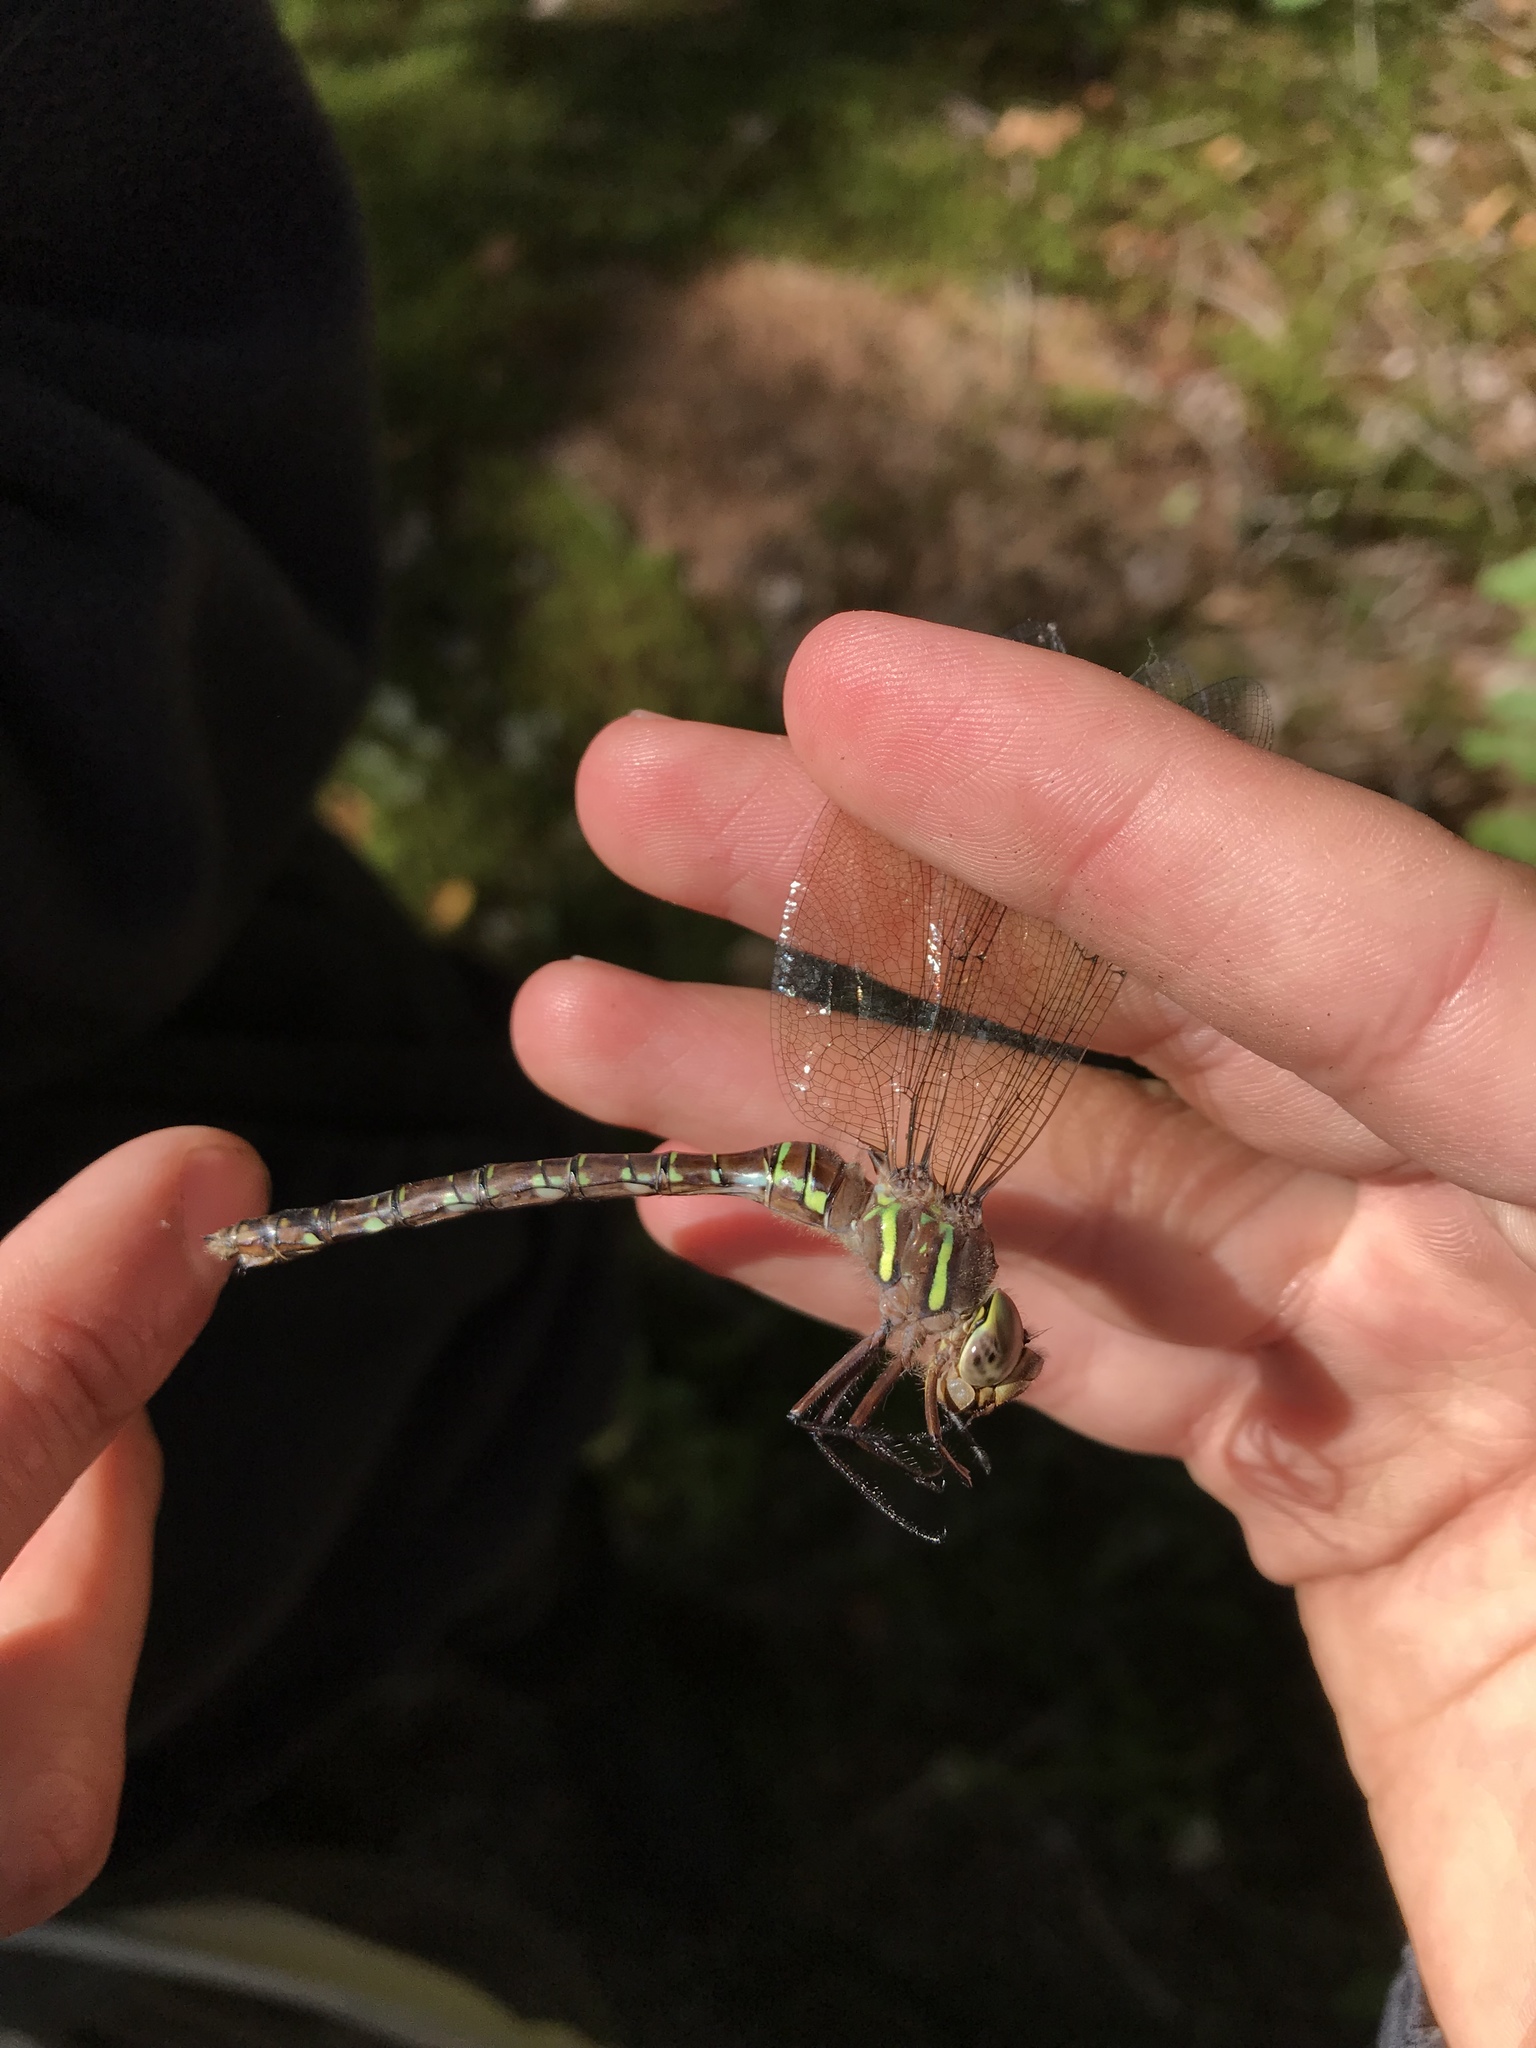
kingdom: Animalia
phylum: Arthropoda
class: Insecta
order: Odonata
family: Aeshnidae
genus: Aeshna
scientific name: Aeshna umbrosa
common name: Shadow darner
